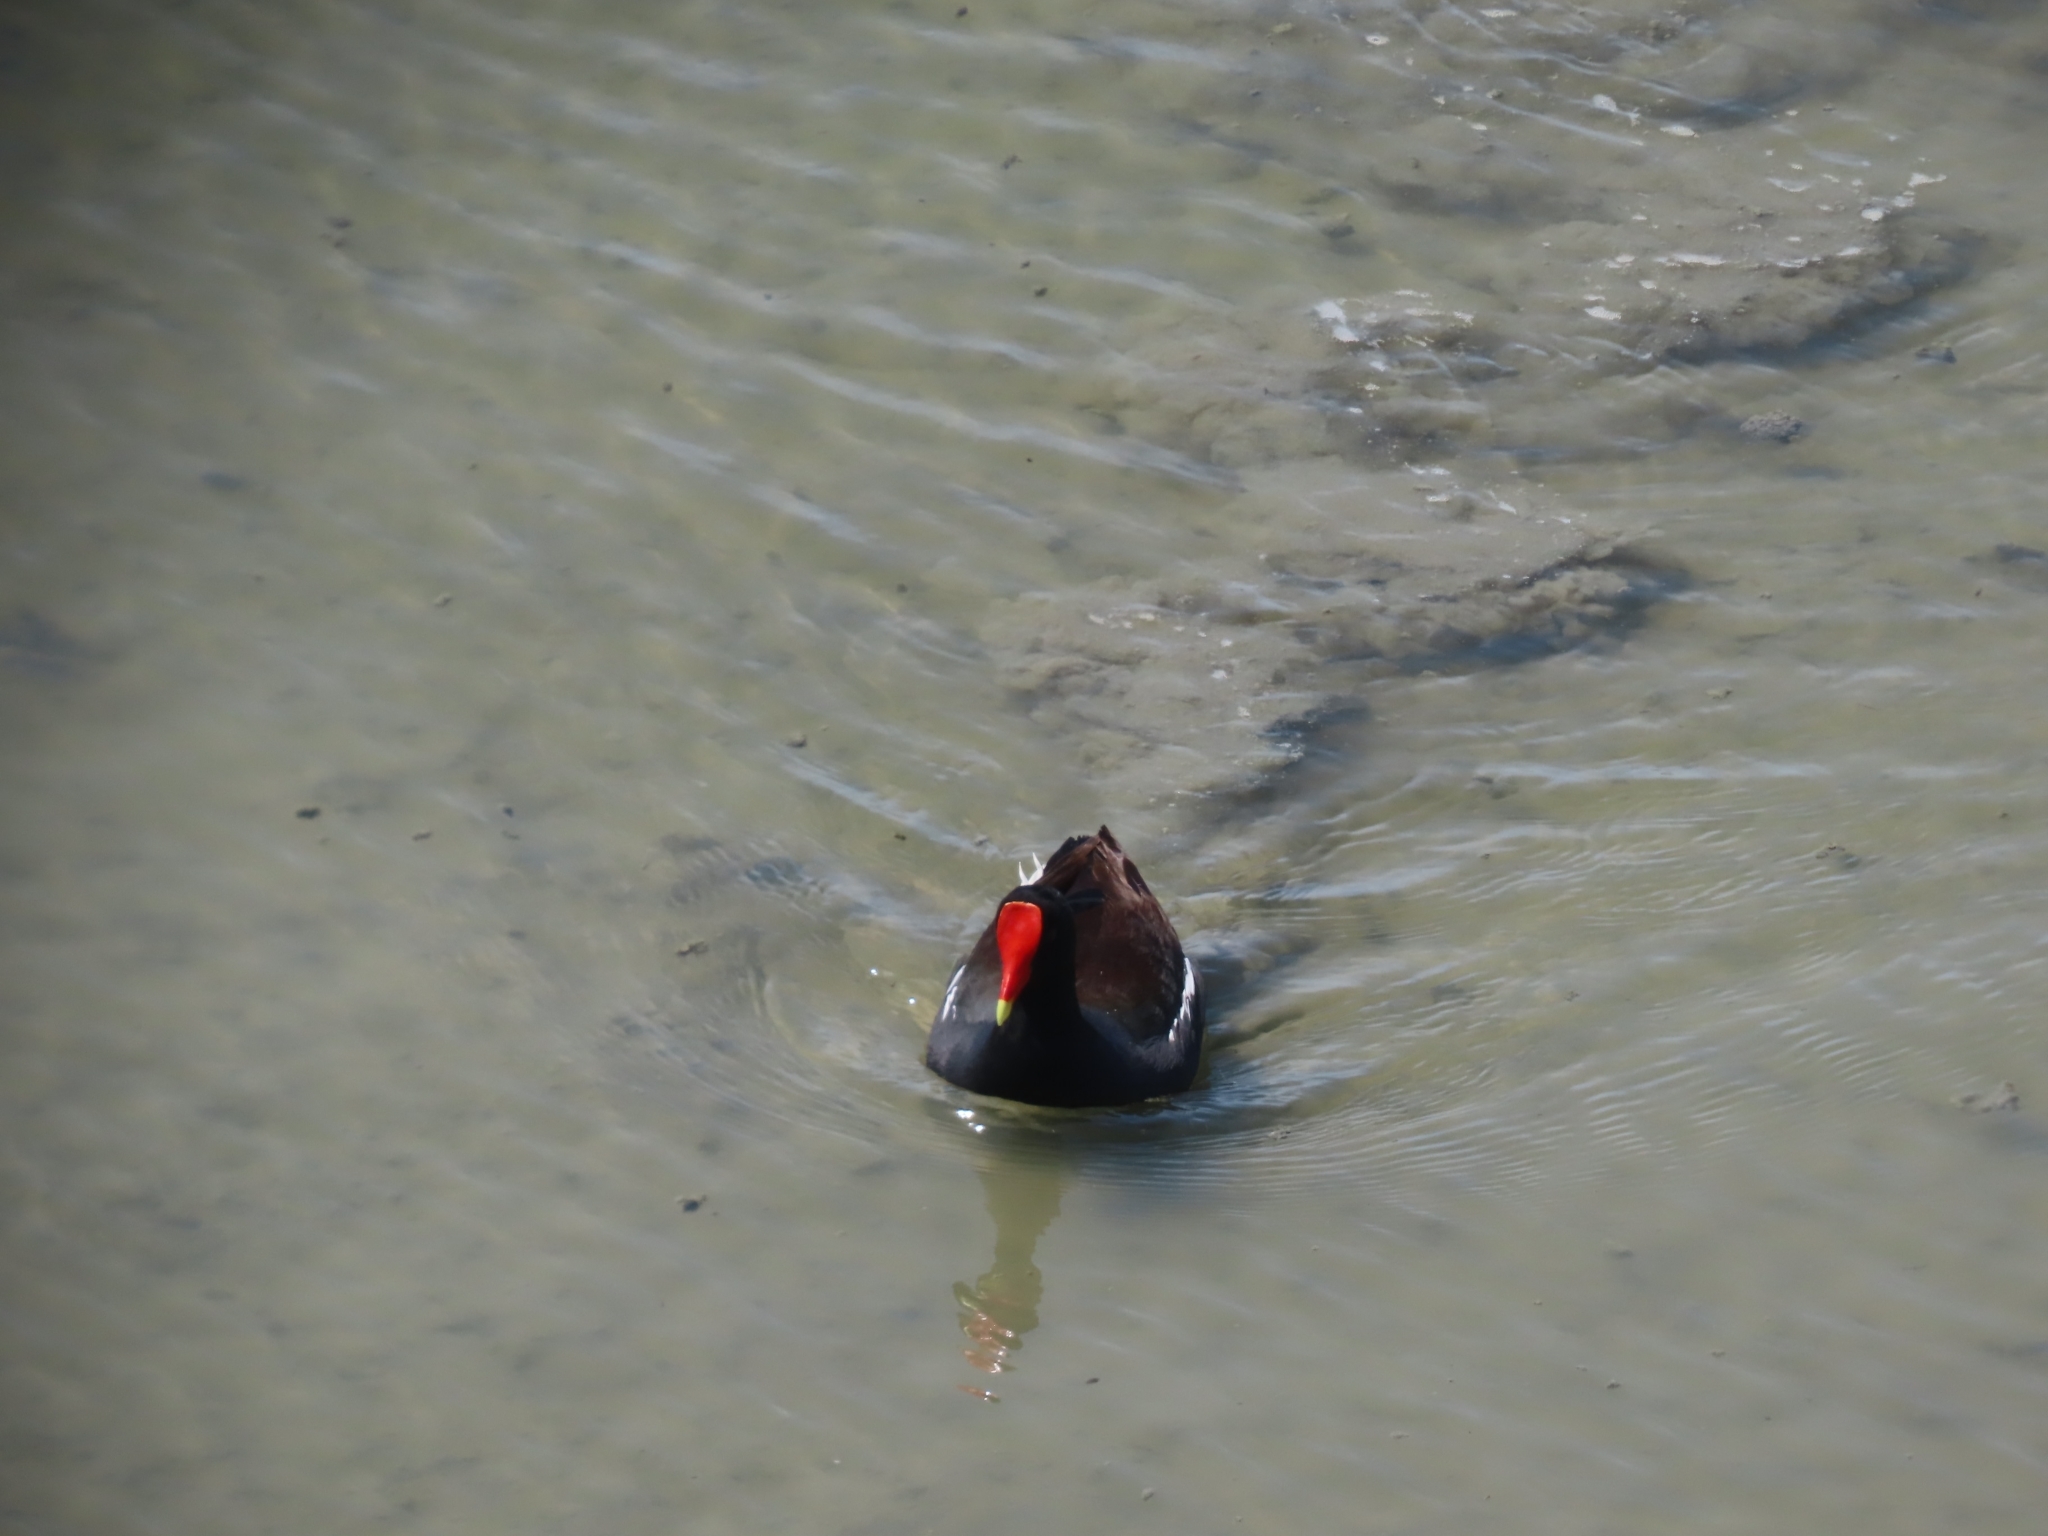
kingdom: Animalia
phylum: Chordata
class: Aves
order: Gruiformes
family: Rallidae
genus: Gallinula
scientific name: Gallinula chloropus
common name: Common moorhen
